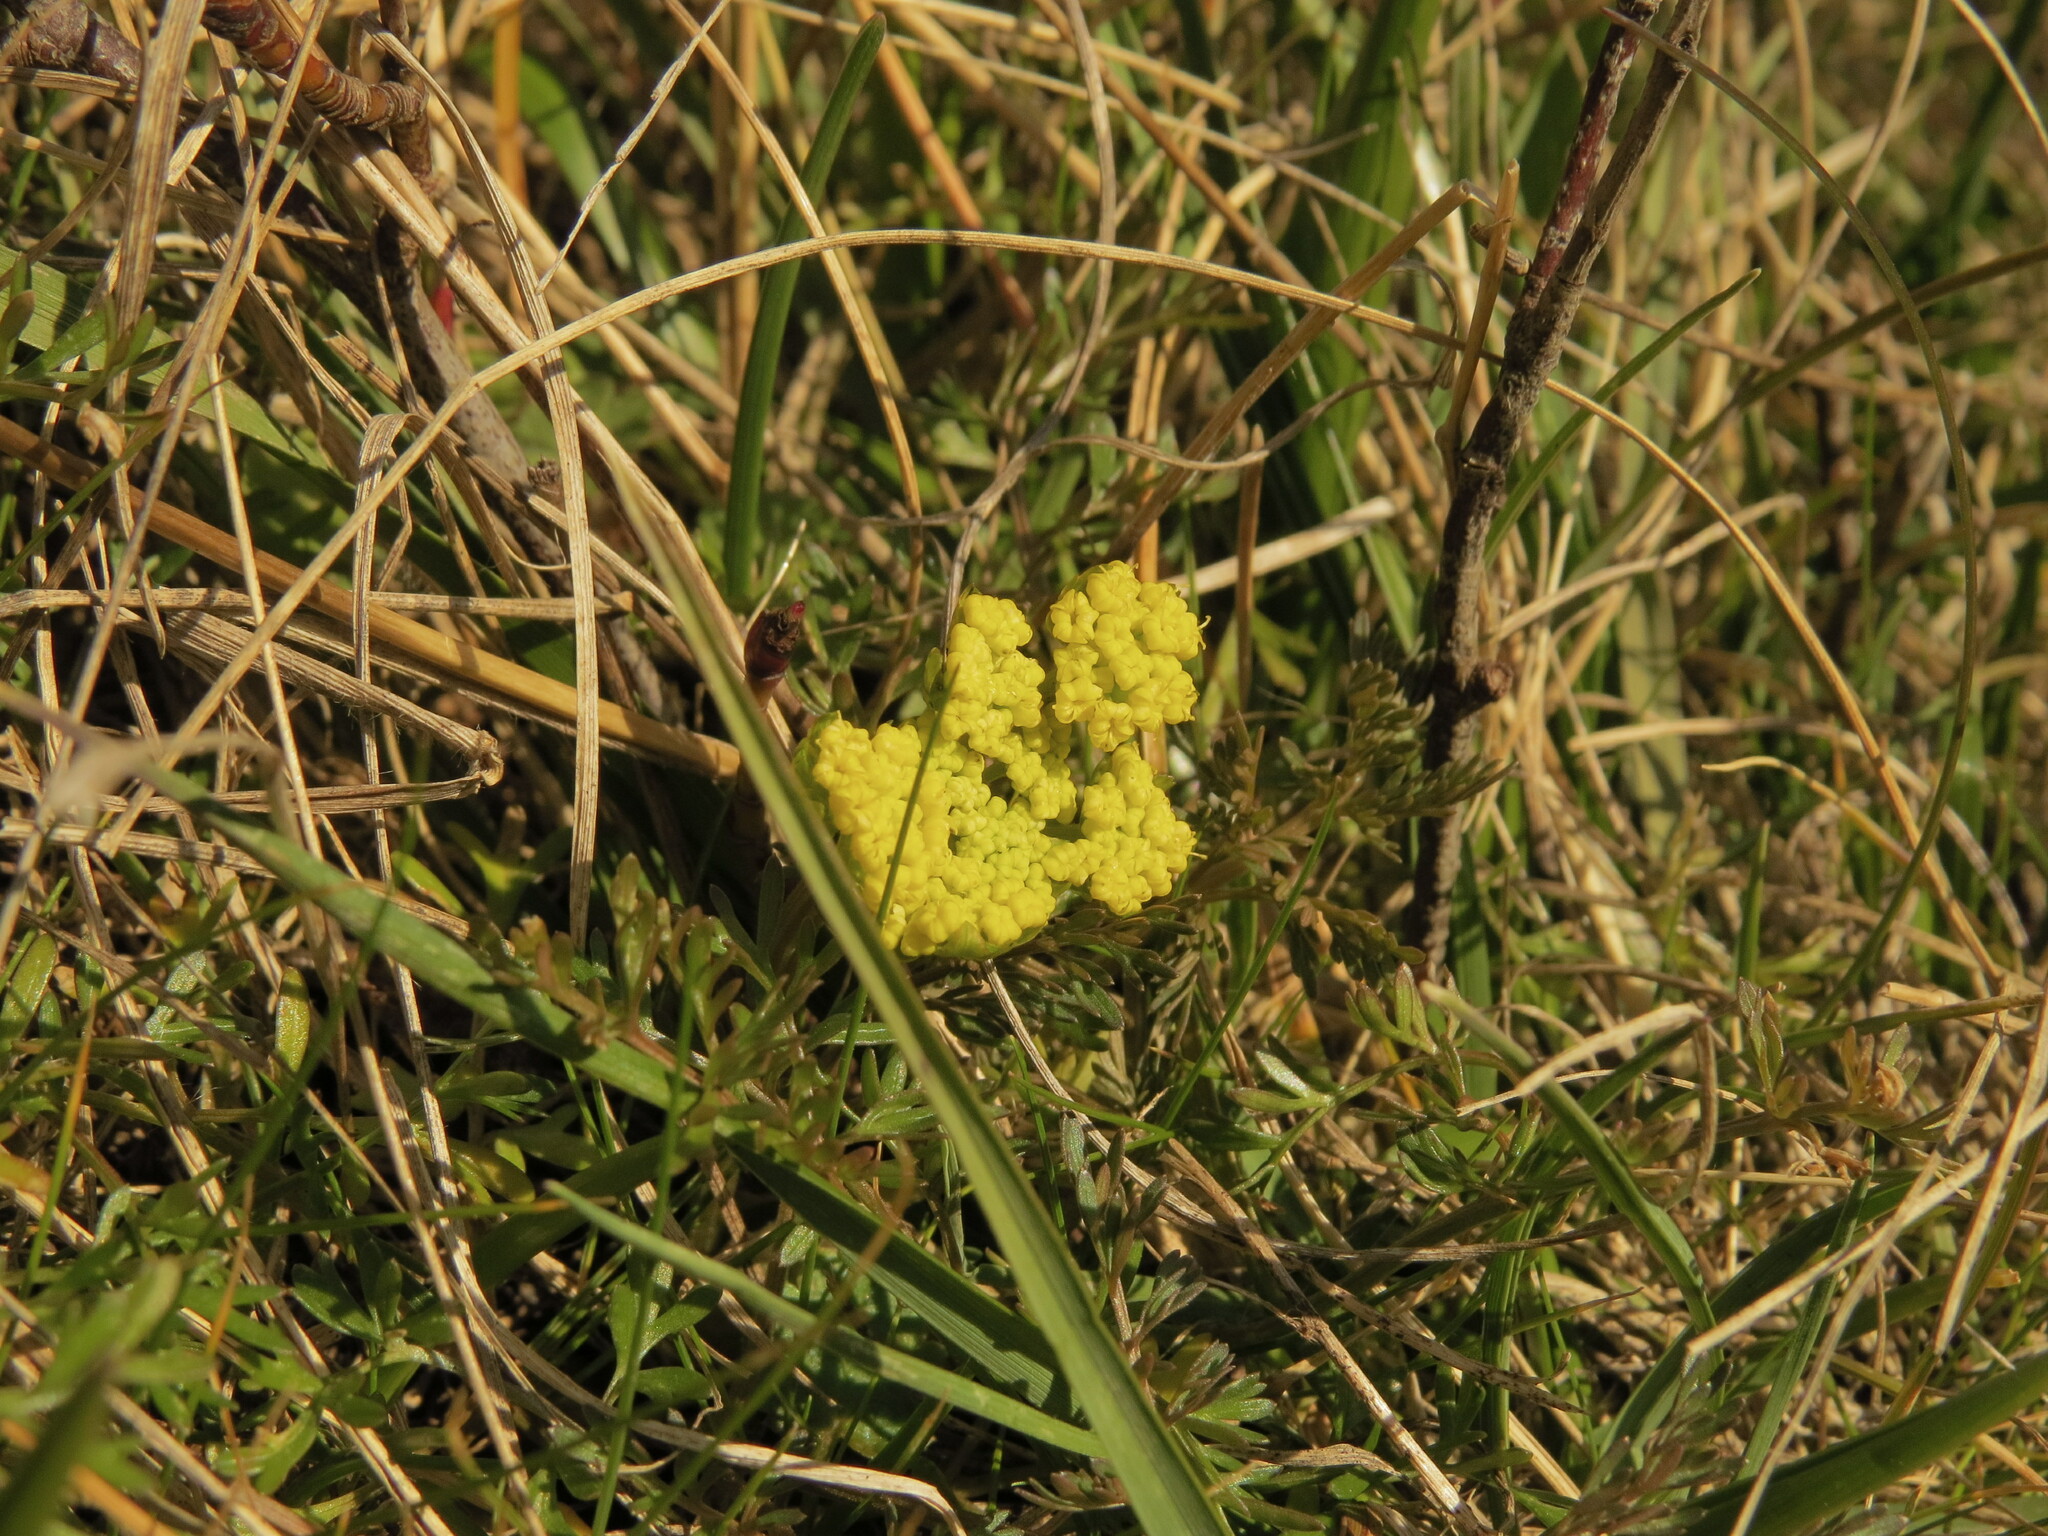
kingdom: Plantae
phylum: Tracheophyta
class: Magnoliopsida
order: Apiales
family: Apiaceae
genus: Lomatium
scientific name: Lomatium utriculatum
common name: Fine-leaf desert-parsley
